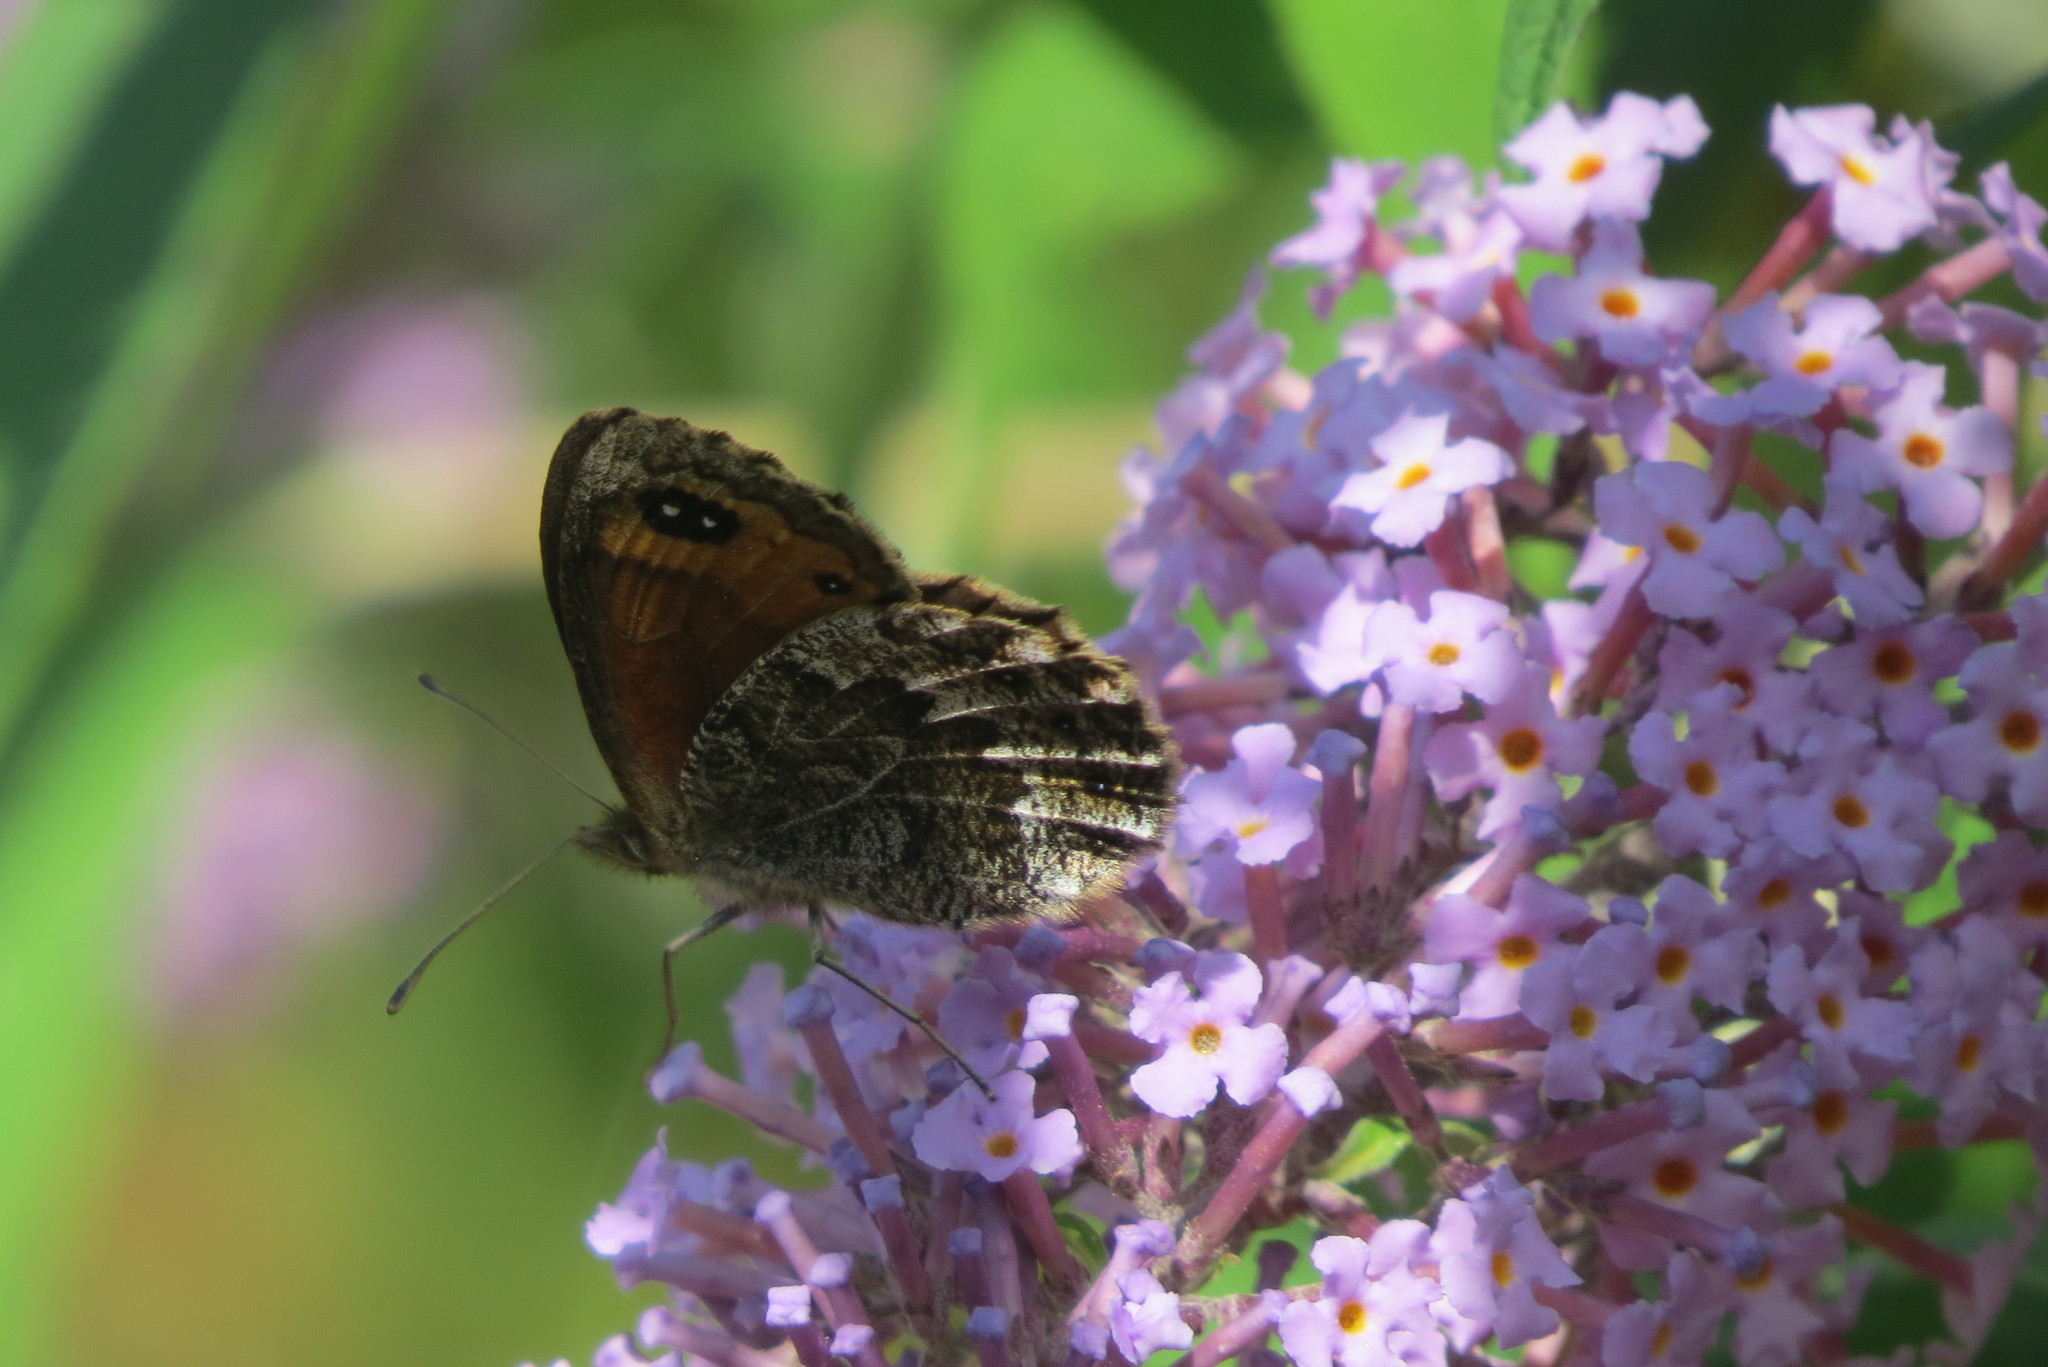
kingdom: Animalia
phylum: Arthropoda
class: Insecta
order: Lepidoptera
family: Nymphalidae
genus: Erebia
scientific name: Erebia montanus
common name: Marbled ringlet
